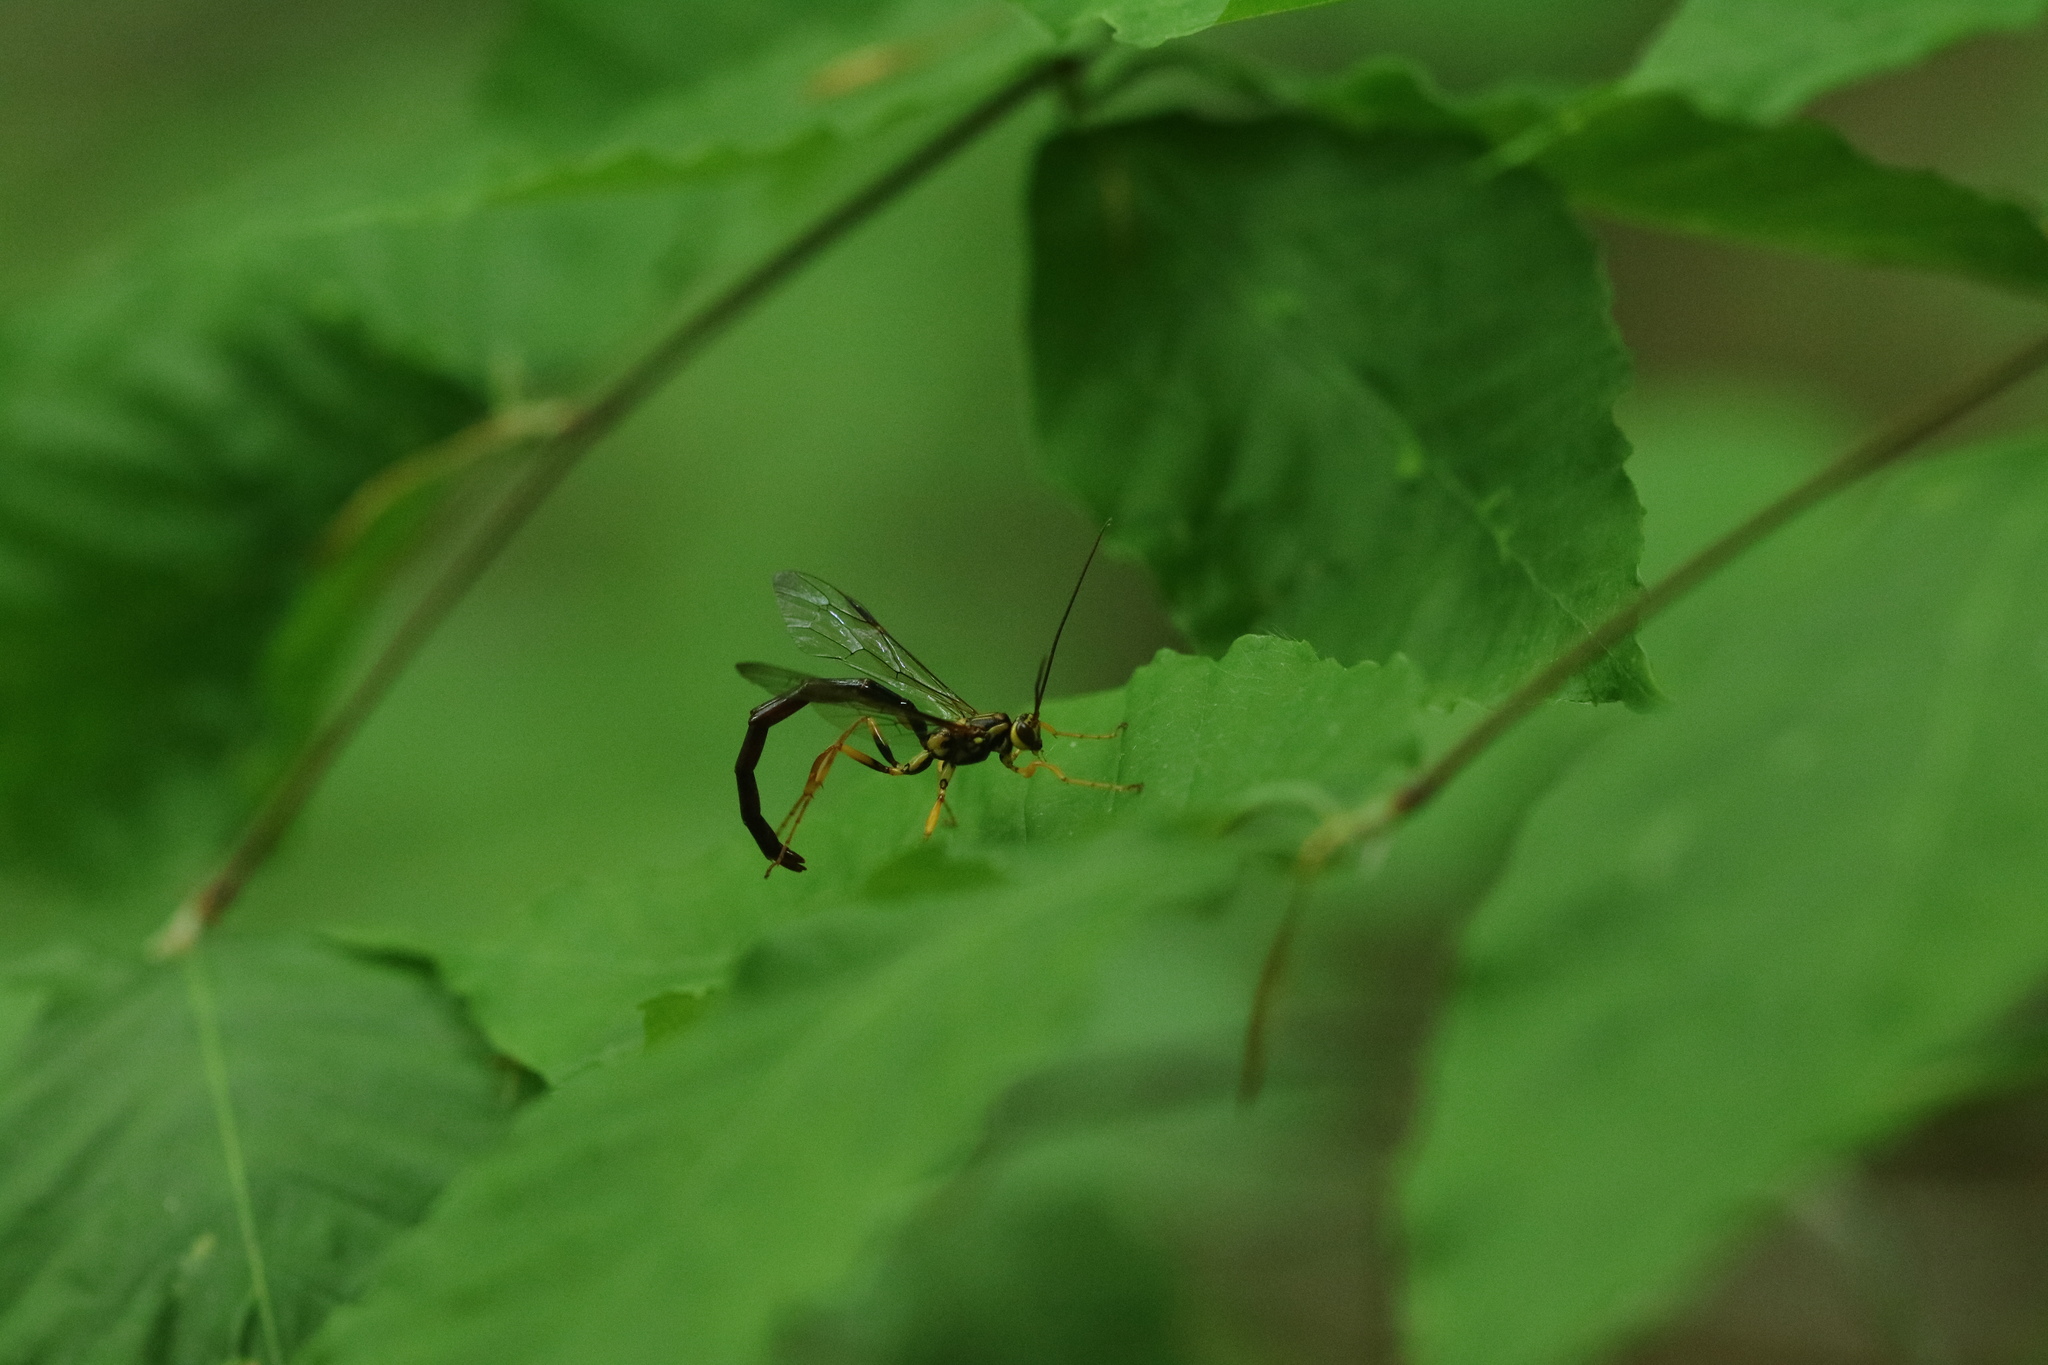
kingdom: Animalia
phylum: Arthropoda
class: Insecta
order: Hymenoptera
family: Ichneumonidae
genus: Megarhyssa
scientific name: Megarhyssa nortoni
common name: Norton's giant ichneumonid wasp
